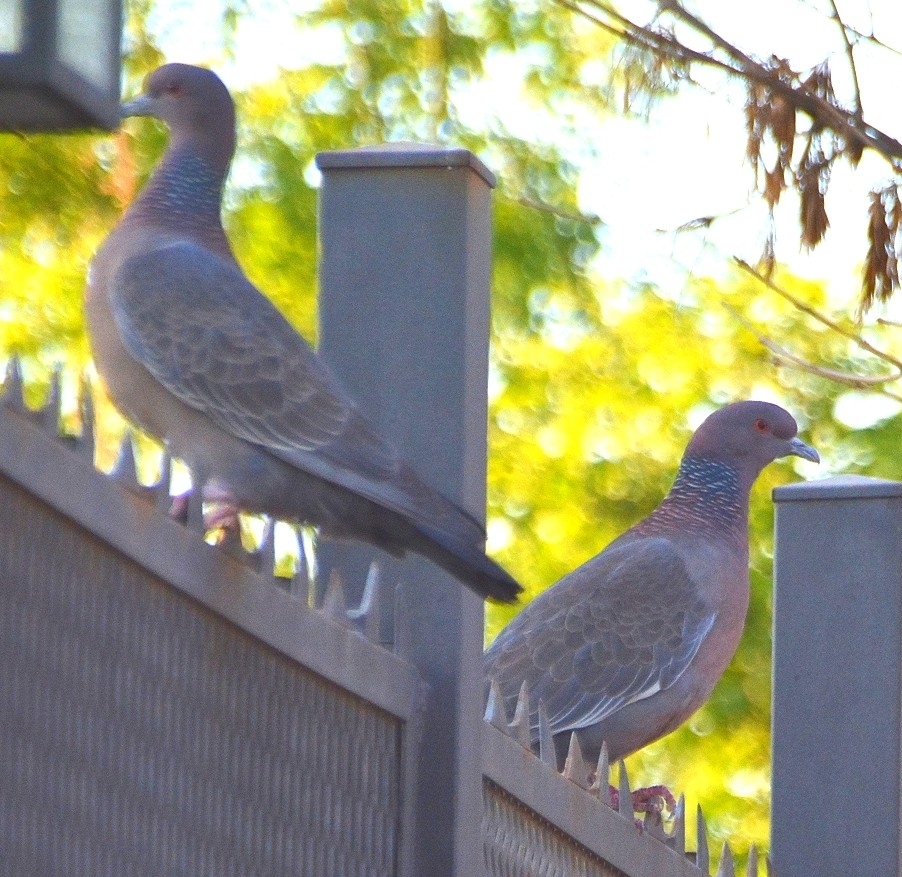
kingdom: Animalia
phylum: Chordata
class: Aves
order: Columbiformes
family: Columbidae
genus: Patagioenas
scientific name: Patagioenas picazuro
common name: Picazuro pigeon
